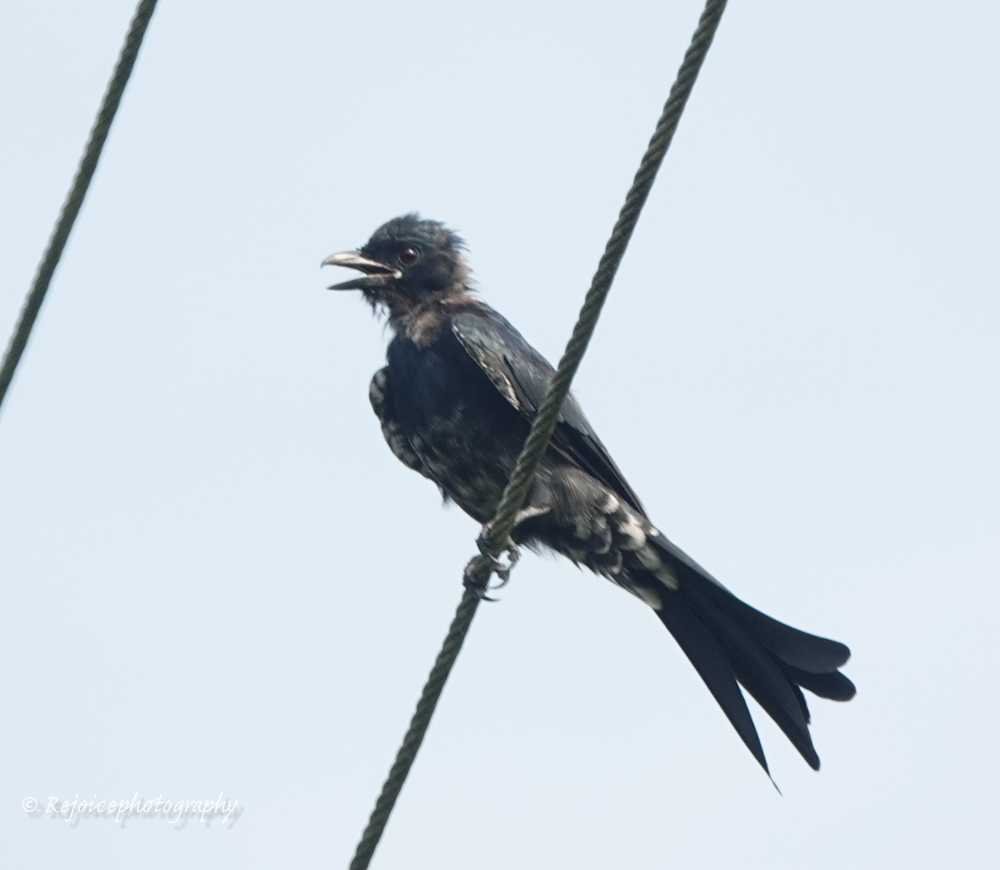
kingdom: Animalia
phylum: Chordata
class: Aves
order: Passeriformes
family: Dicruridae
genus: Dicrurus
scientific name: Dicrurus macrocercus
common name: Black drongo
